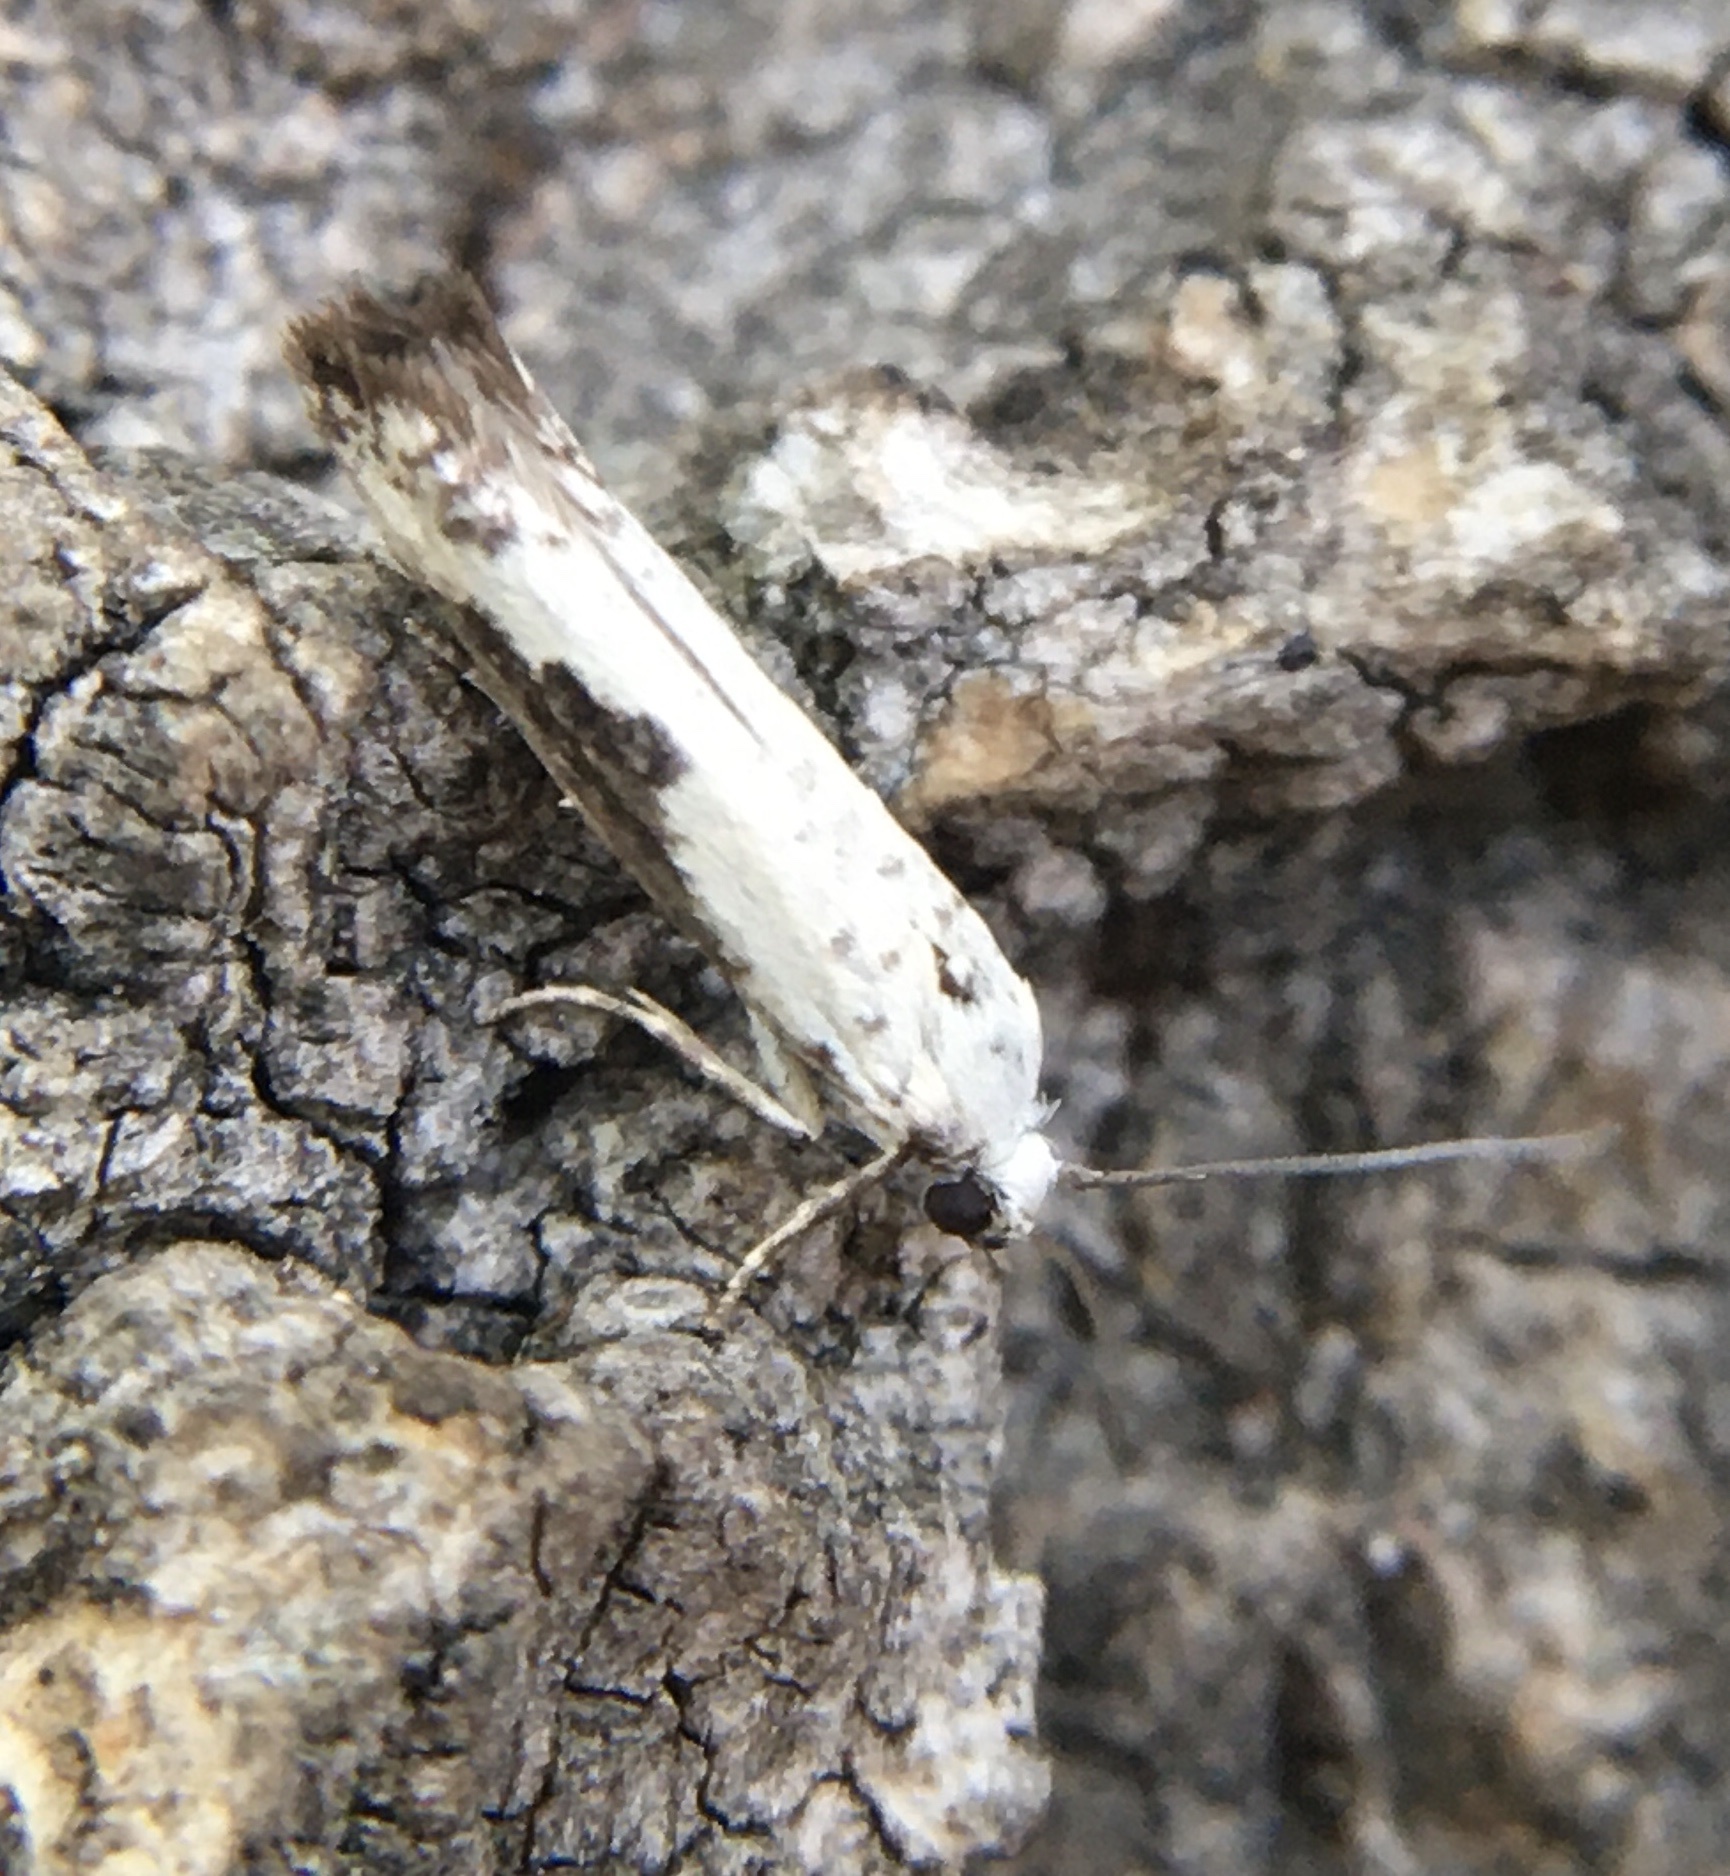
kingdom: Animalia
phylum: Arthropoda
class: Insecta
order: Lepidoptera
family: Praydidae
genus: Prays
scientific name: Prays fraxinella
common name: Ash bud moth
